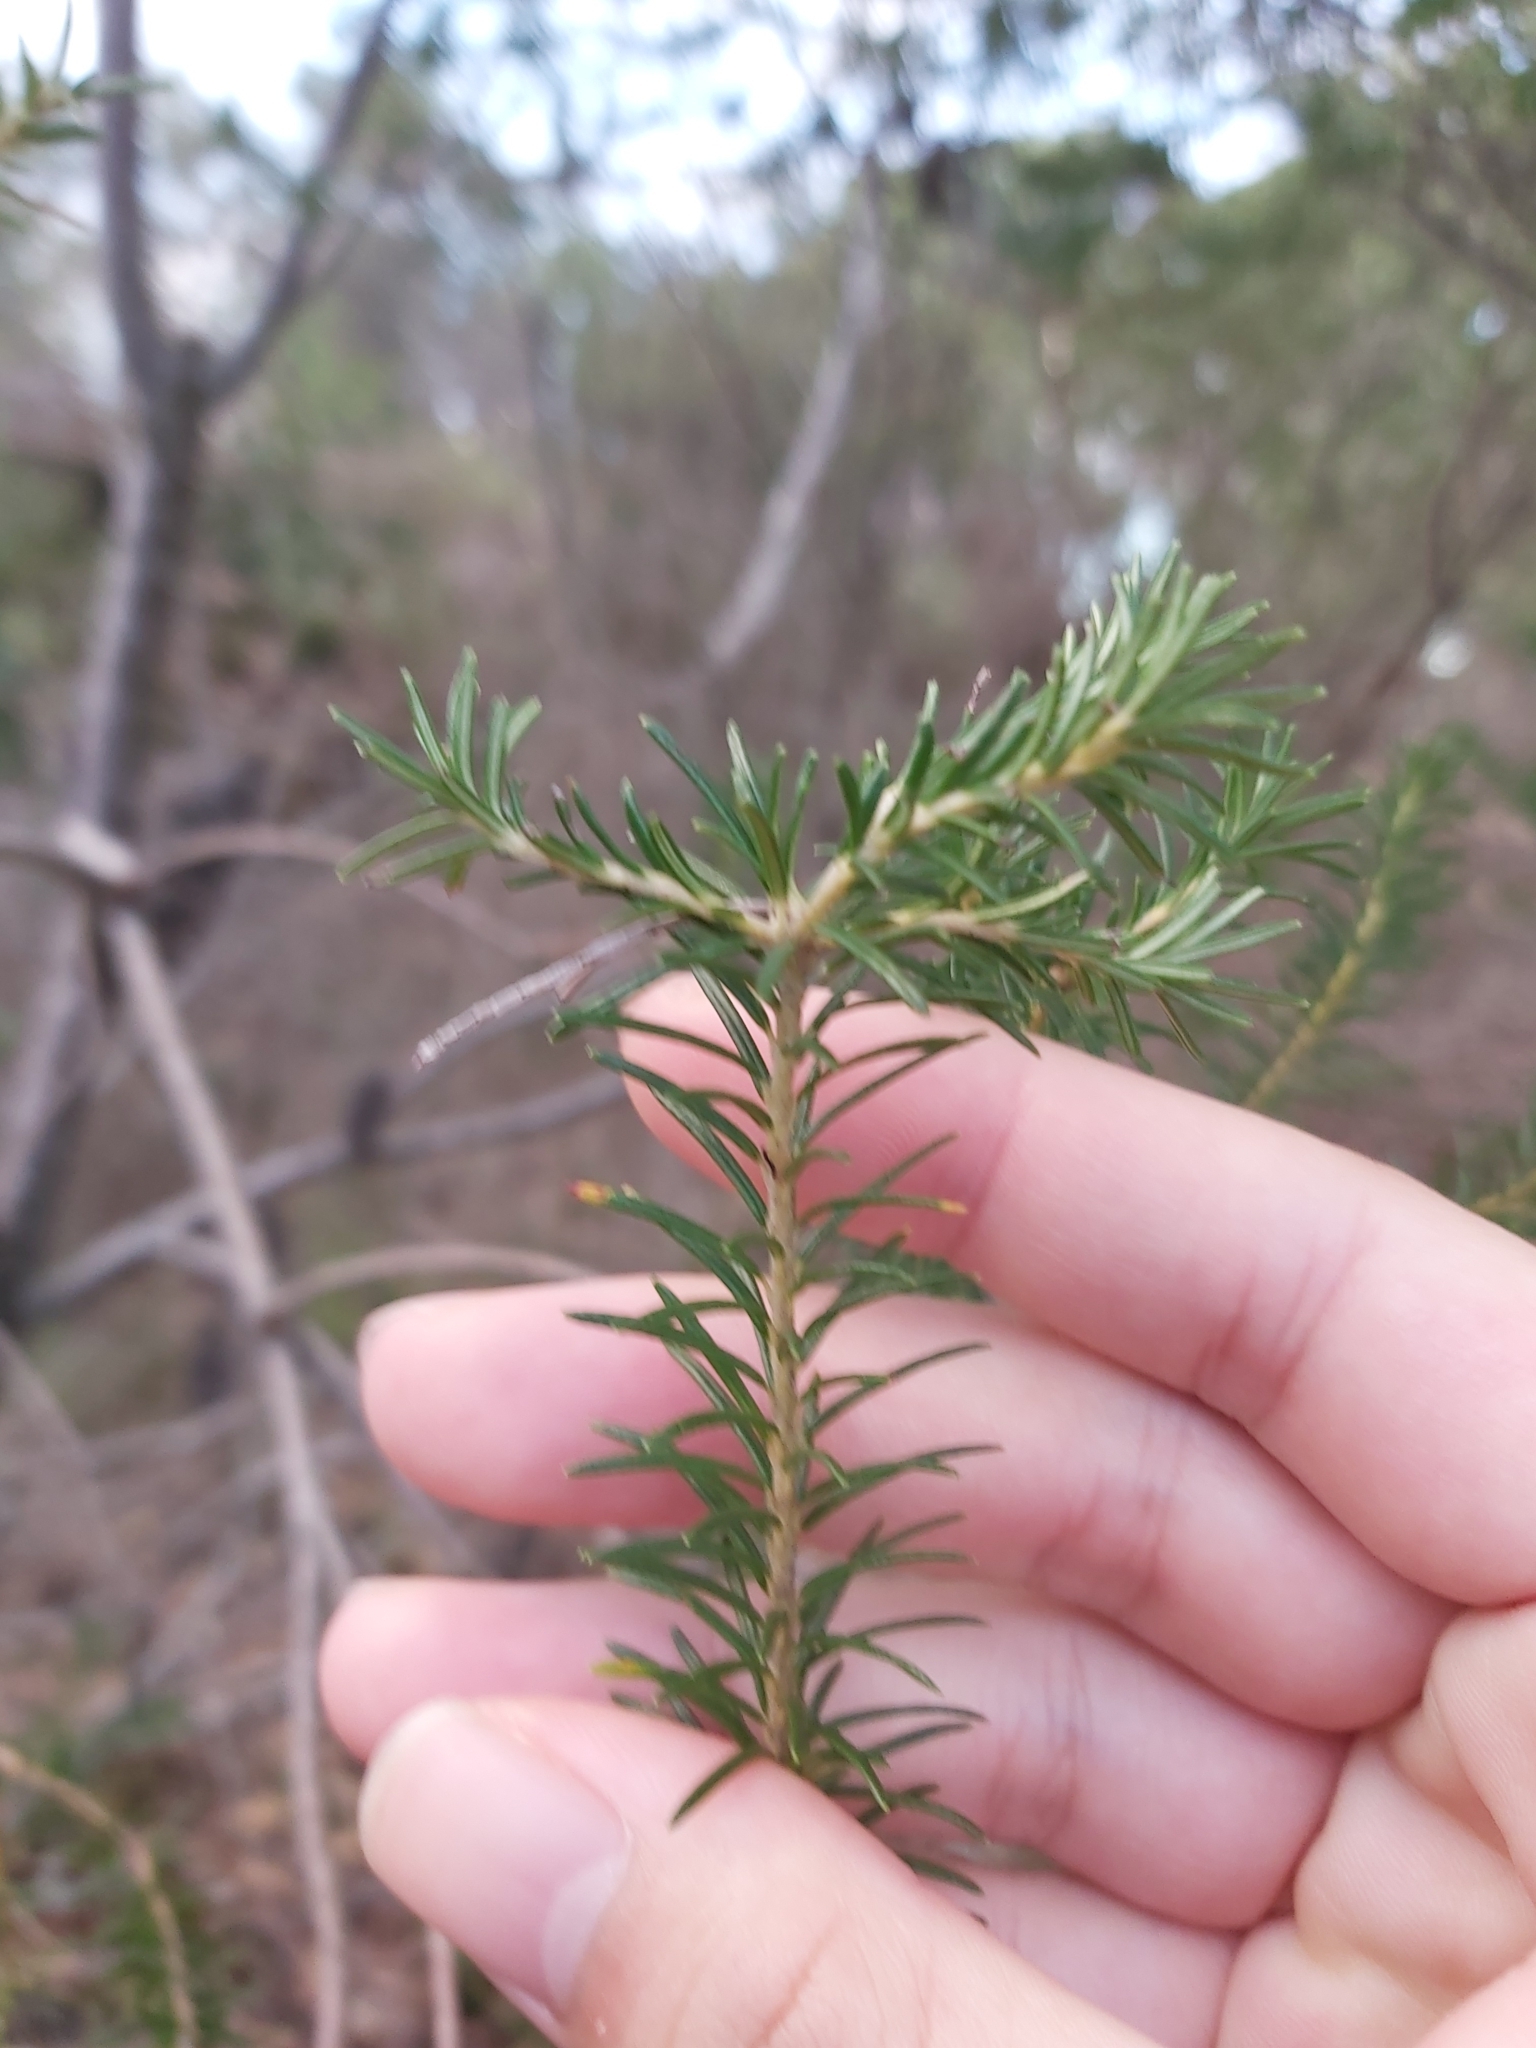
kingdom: Plantae
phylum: Tracheophyta
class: Magnoliopsida
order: Proteales
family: Proteaceae
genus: Banksia
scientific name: Banksia ericifolia
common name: Heath-leaf banksia
